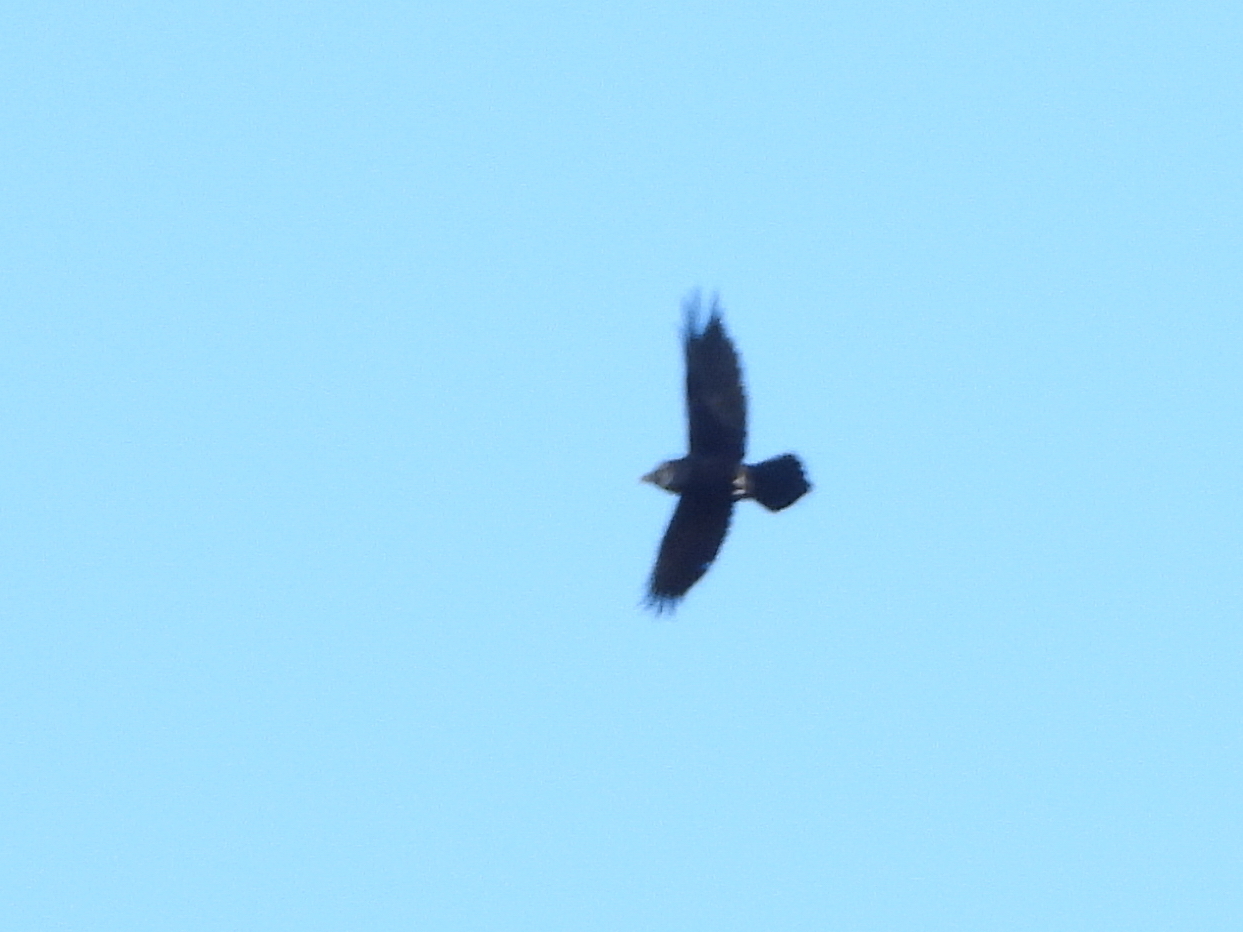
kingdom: Animalia
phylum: Chordata
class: Aves
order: Passeriformes
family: Corvidae
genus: Corvus
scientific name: Corvus corax
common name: Common raven
